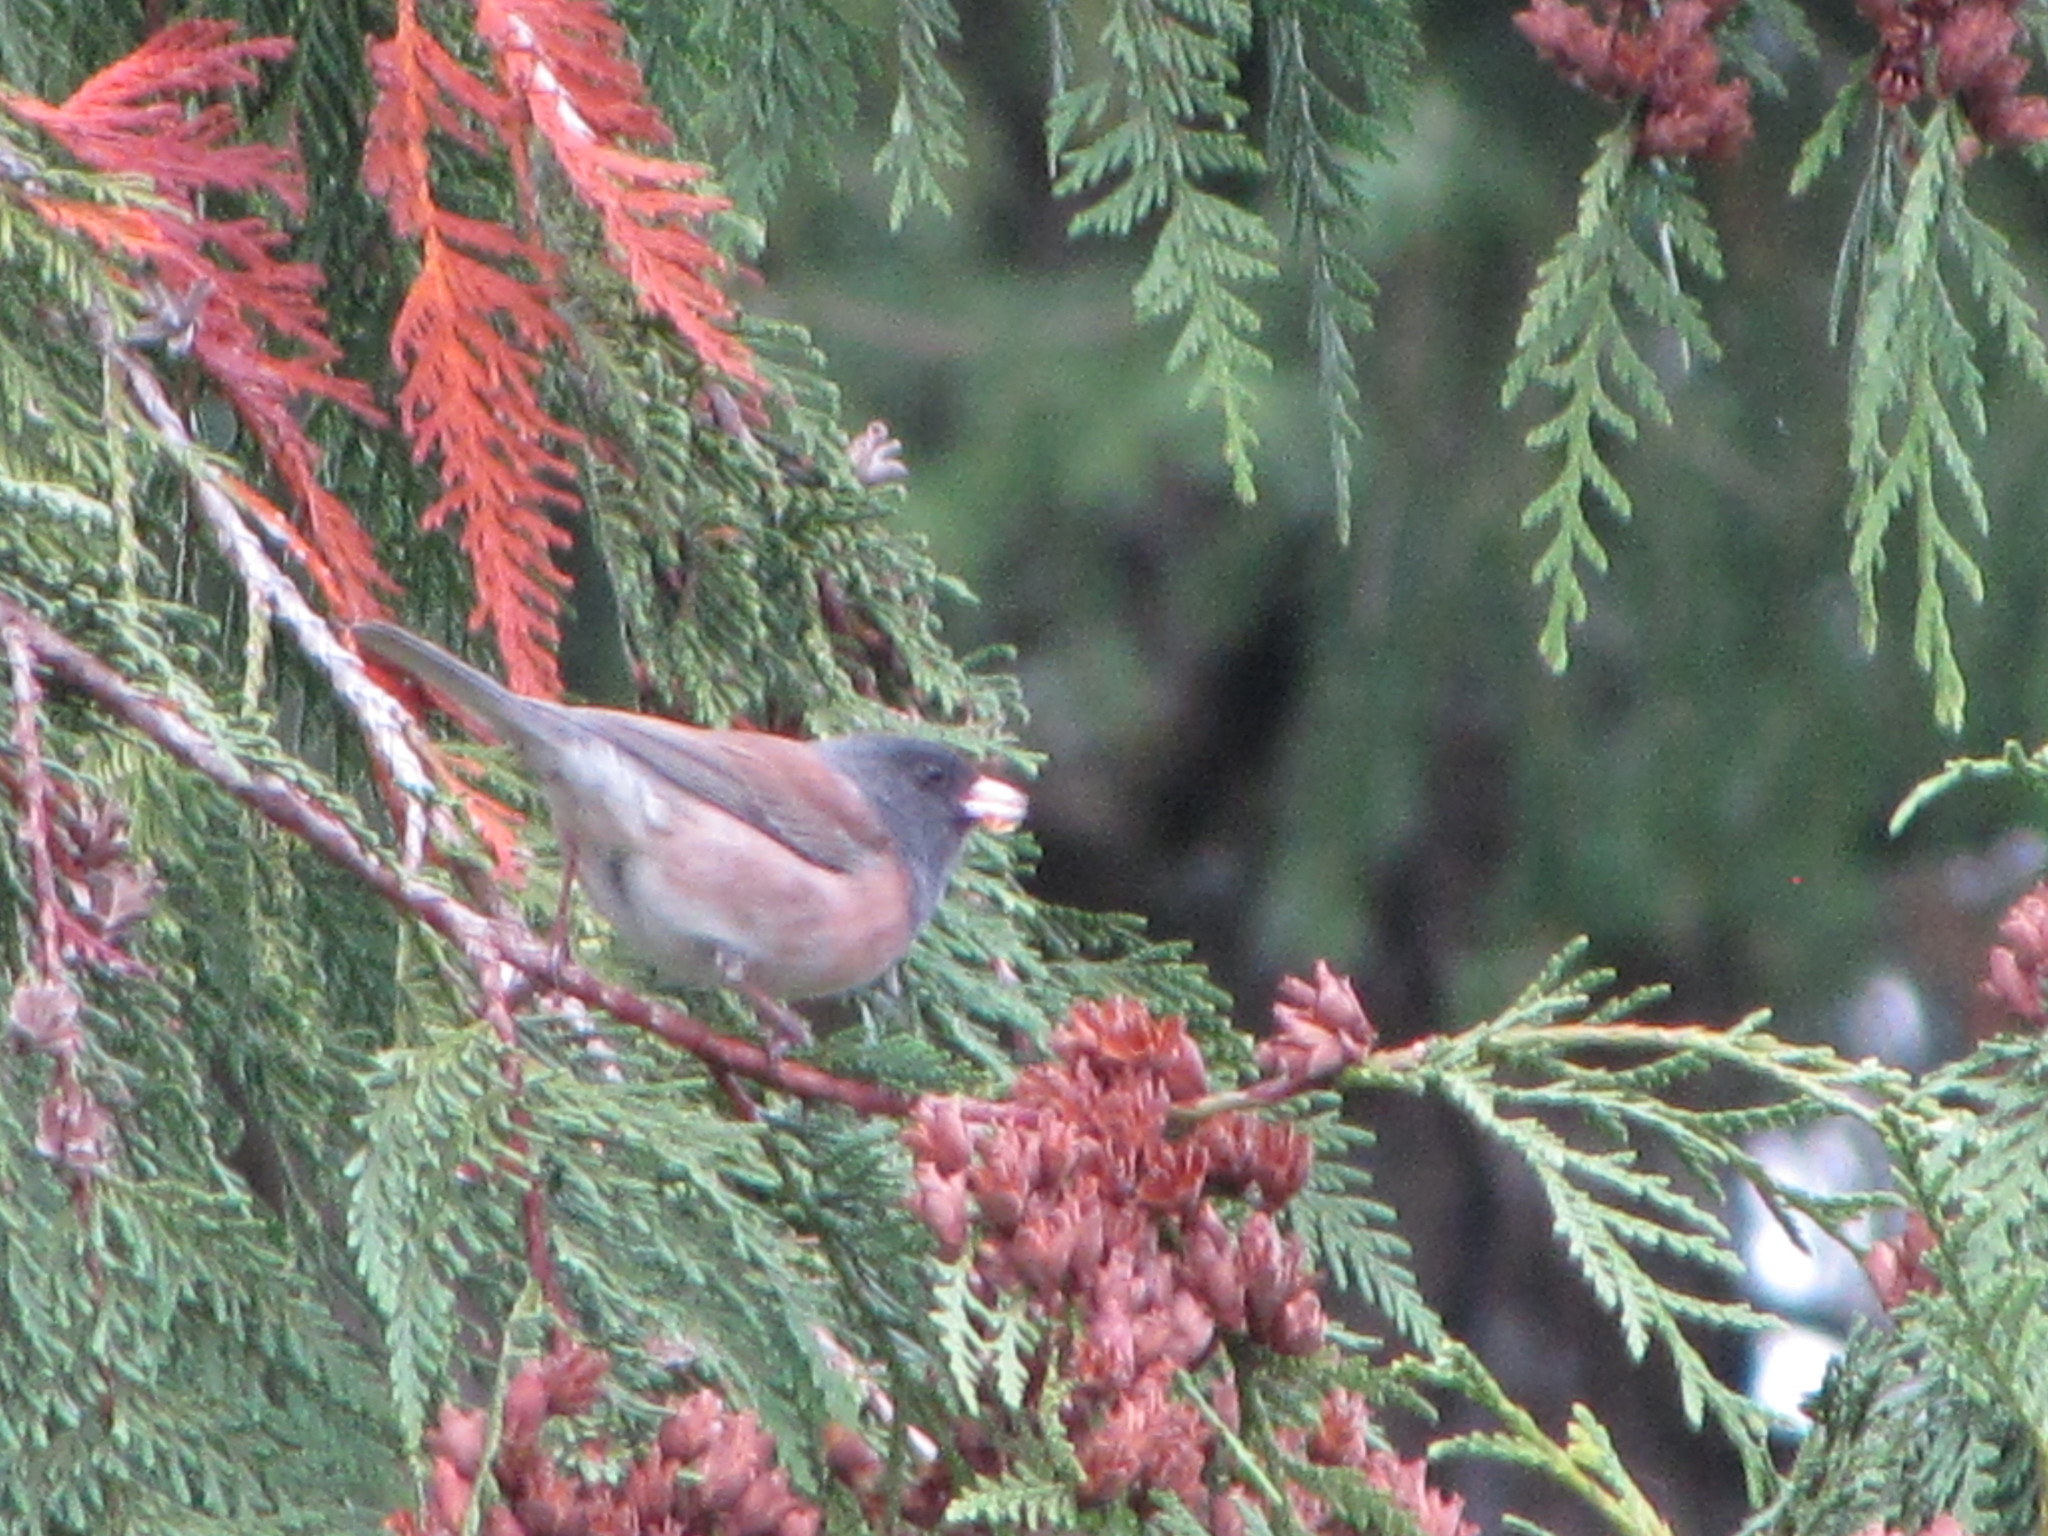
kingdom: Animalia
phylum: Chordata
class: Aves
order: Passeriformes
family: Passerellidae
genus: Junco
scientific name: Junco hyemalis
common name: Dark-eyed junco
